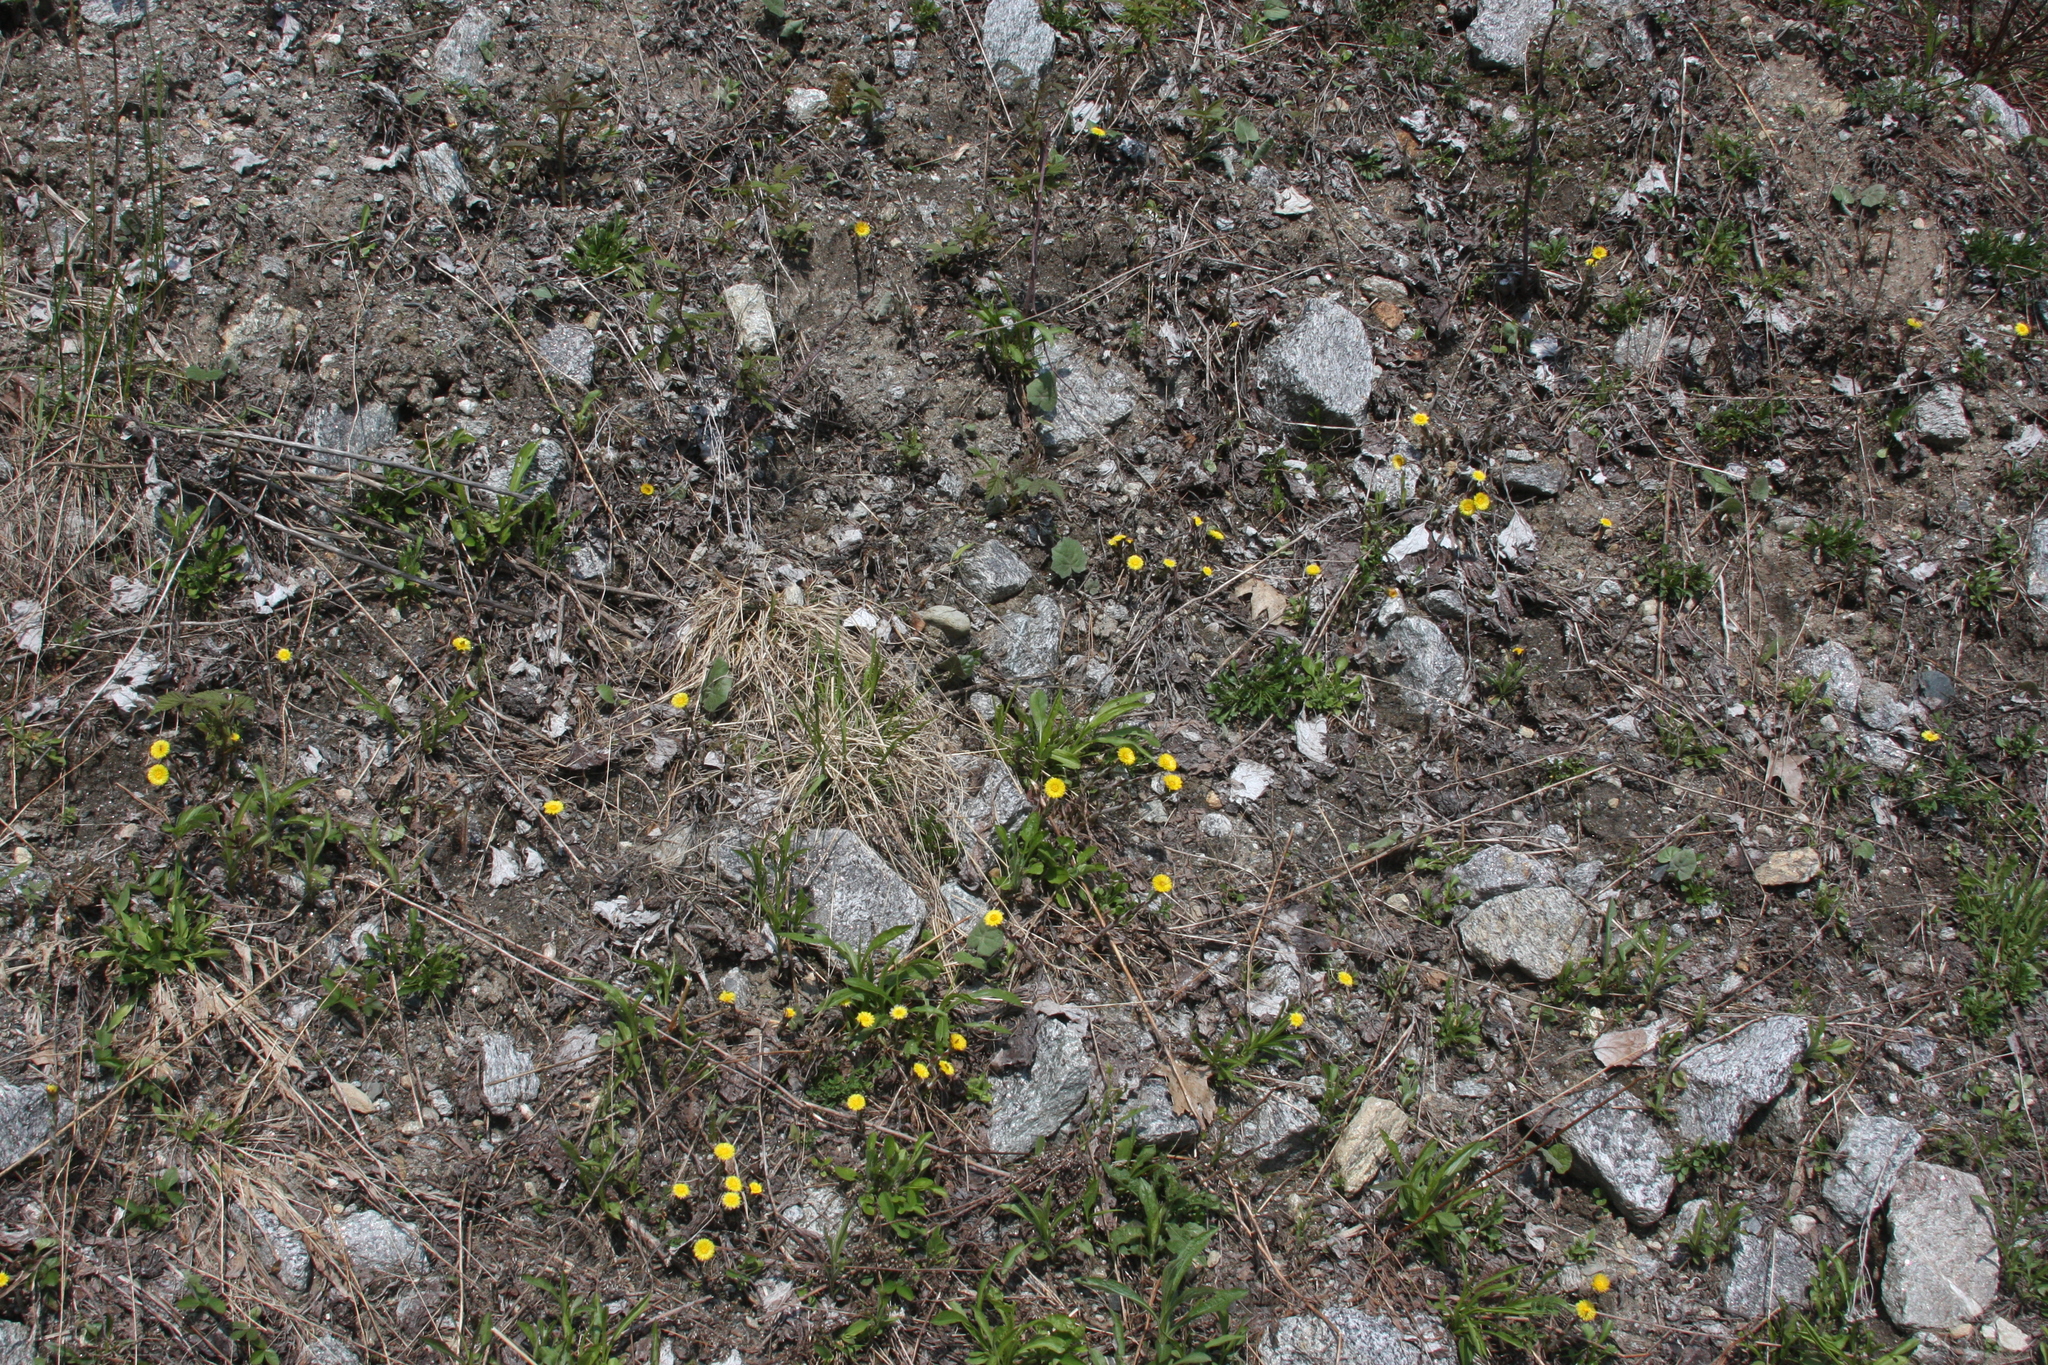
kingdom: Plantae
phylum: Tracheophyta
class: Magnoliopsida
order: Asterales
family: Asteraceae
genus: Tussilago
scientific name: Tussilago farfara
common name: Coltsfoot
